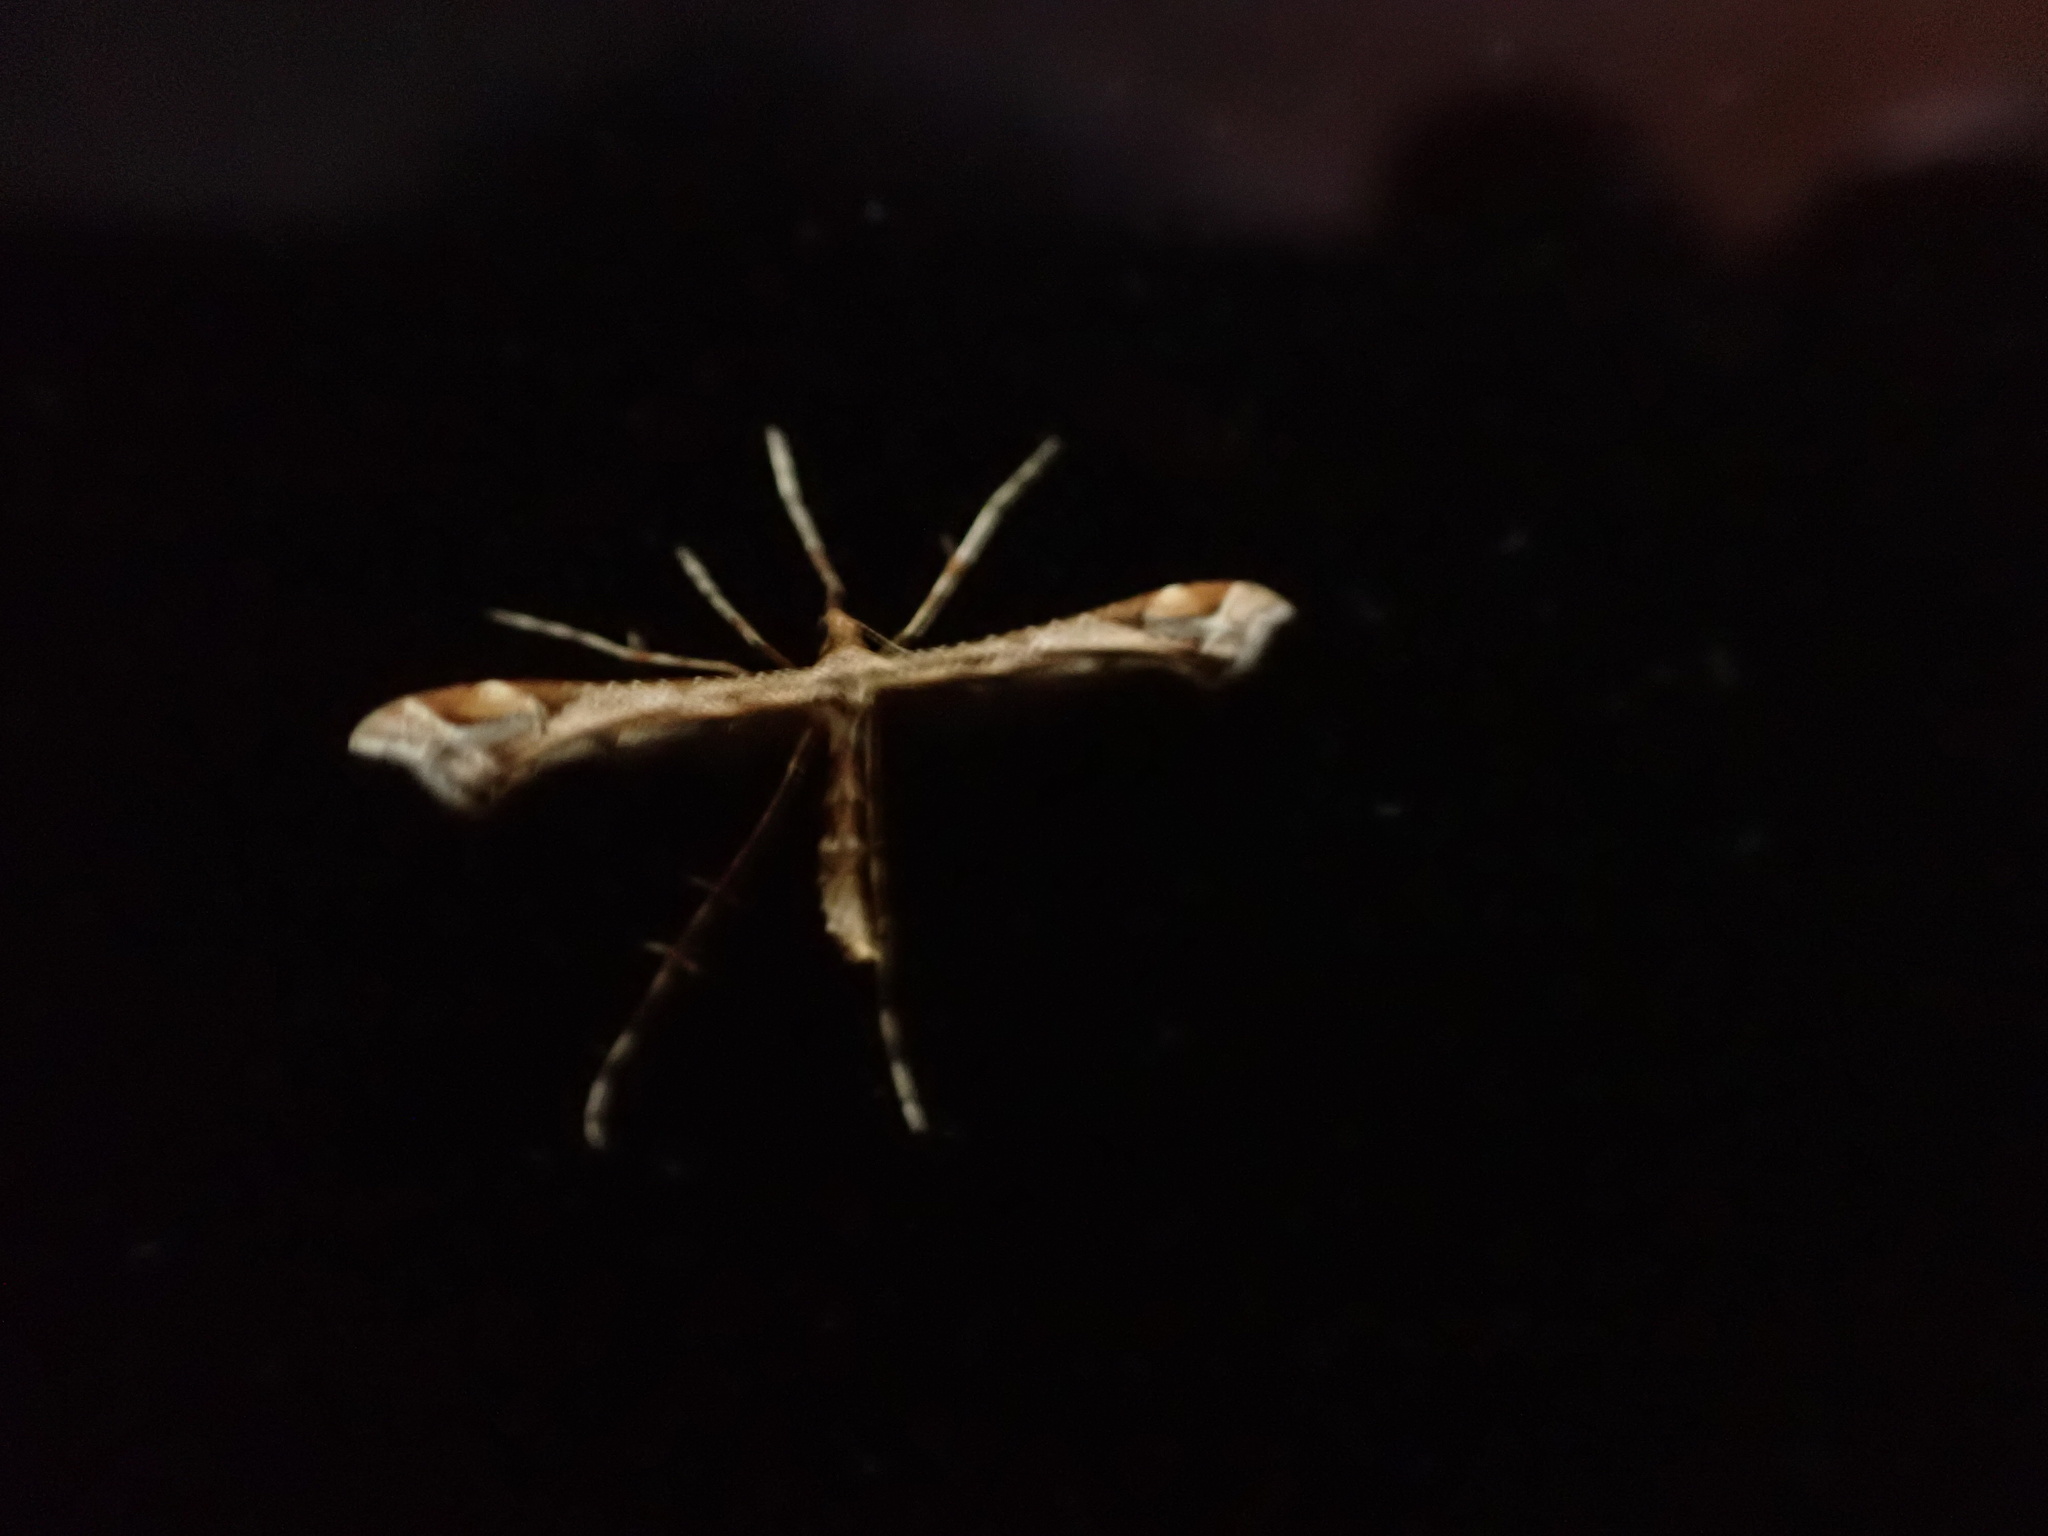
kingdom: Animalia
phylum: Arthropoda
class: Insecta
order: Lepidoptera
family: Pterophoridae
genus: Amblyptilia
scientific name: Amblyptilia acanthadactyla
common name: Beautiful plume
